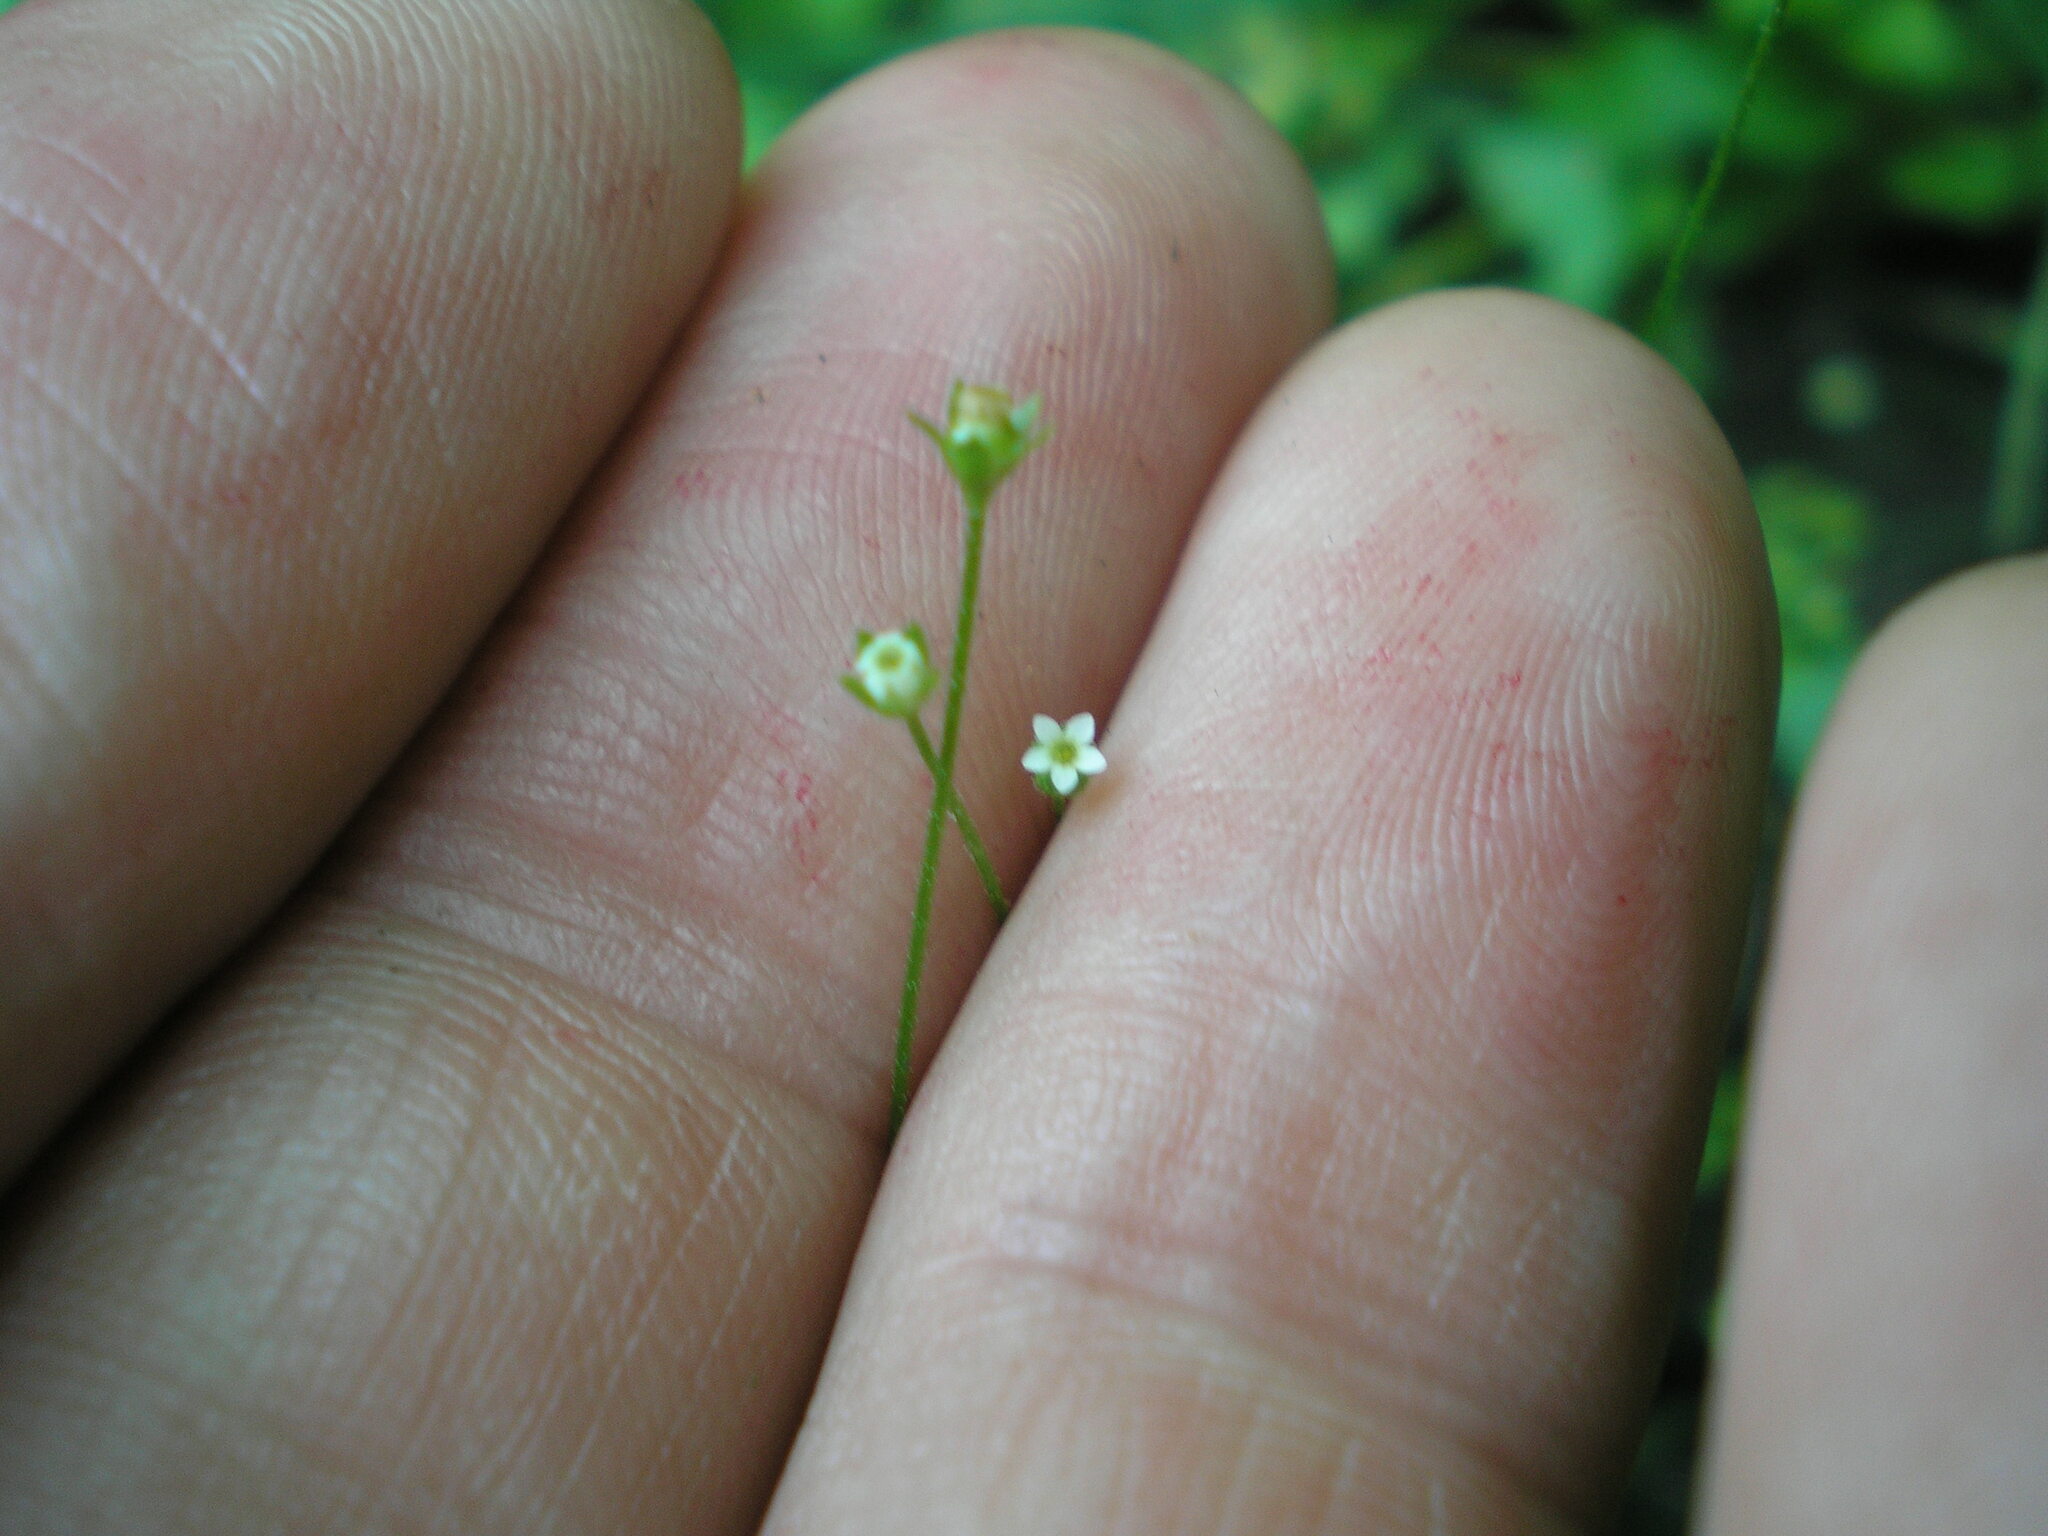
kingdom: Plantae
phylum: Tracheophyta
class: Magnoliopsida
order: Ericales
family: Primulaceae
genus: Androsace
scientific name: Androsace filiformis
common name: Filiform rock jasmine
